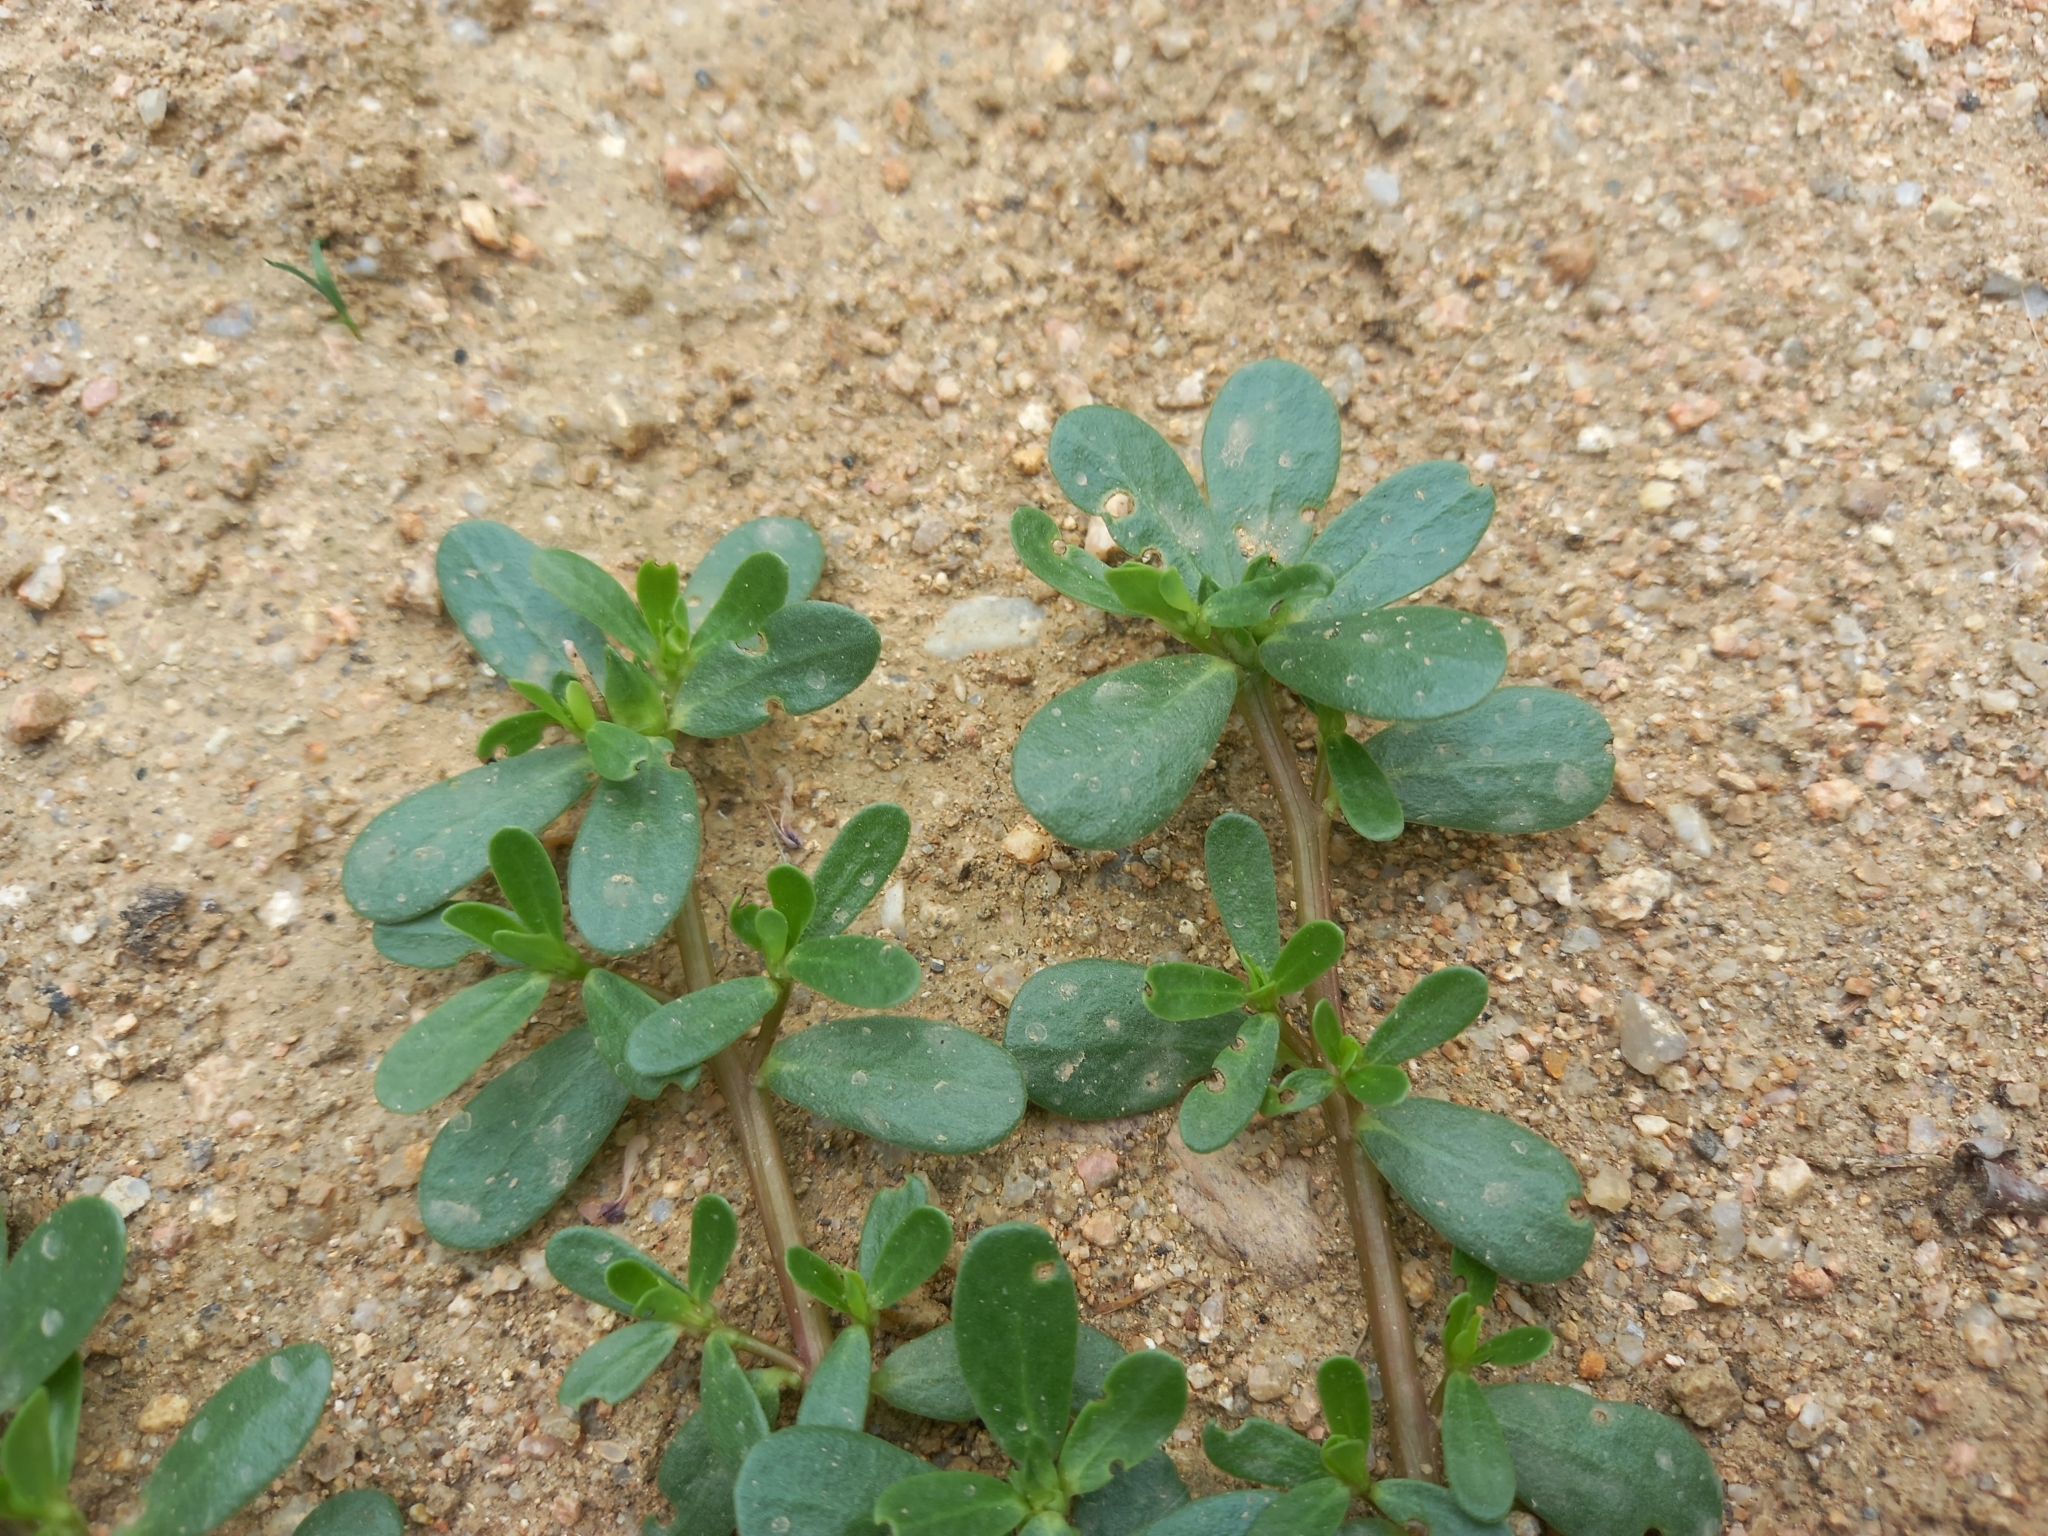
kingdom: Plantae
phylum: Tracheophyta
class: Magnoliopsida
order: Caryophyllales
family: Portulacaceae
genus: Portulaca
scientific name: Portulaca oleracea
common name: Common purslane
